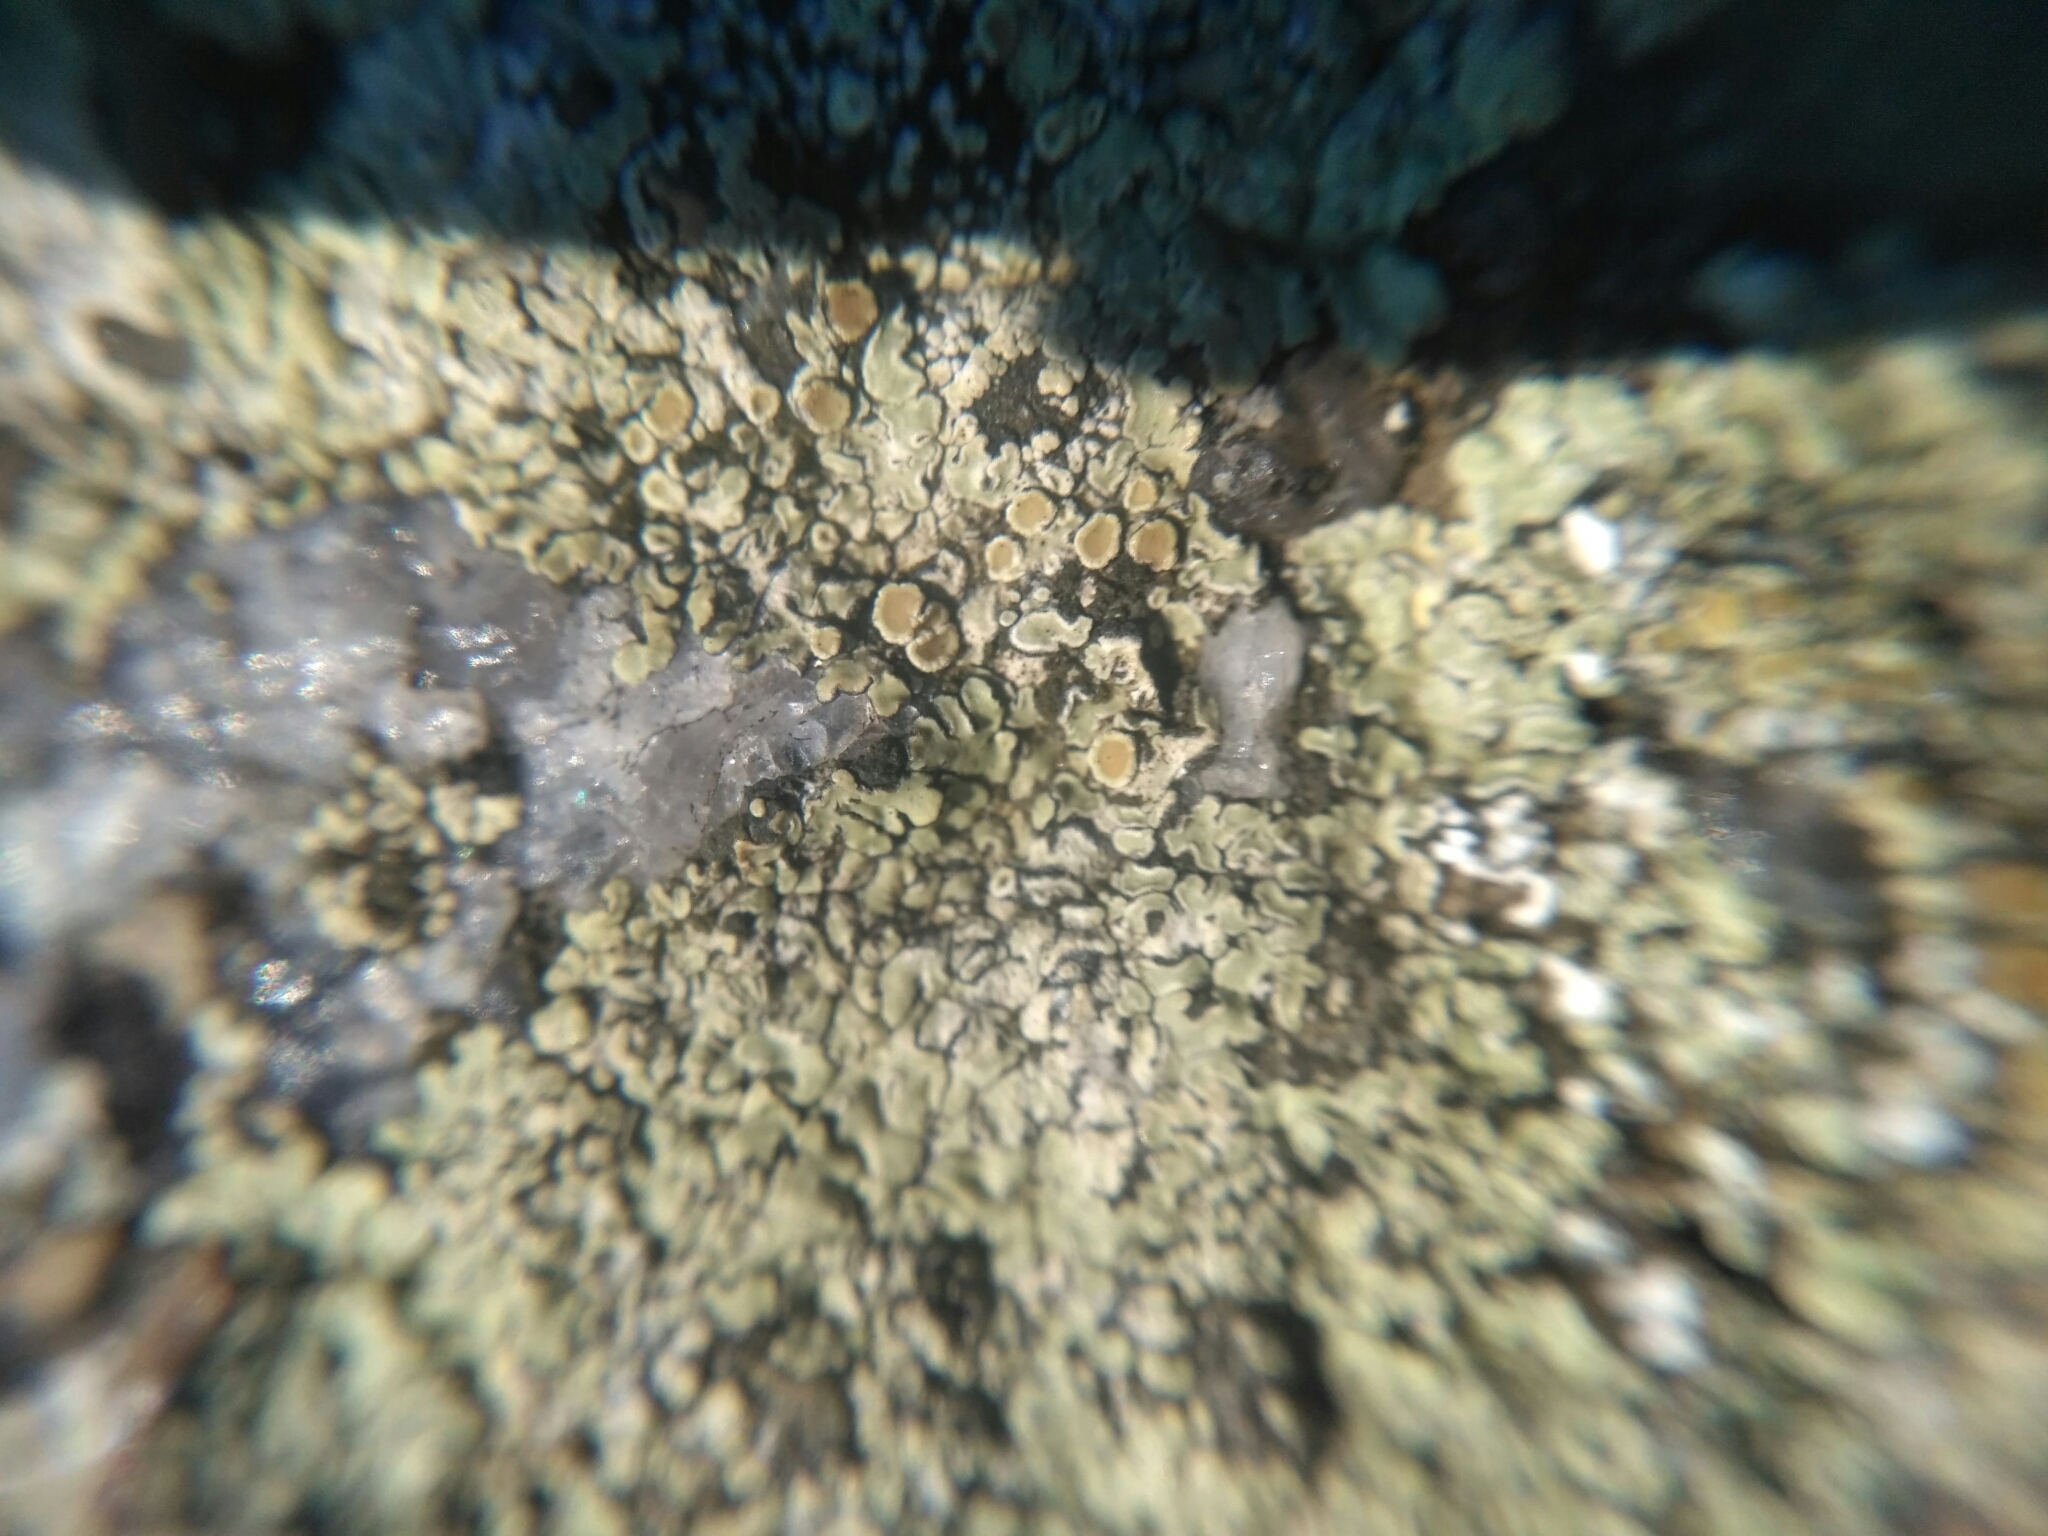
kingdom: Fungi
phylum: Ascomycota
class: Lecanoromycetes
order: Lecanorales
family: Lecanoraceae
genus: Protoparmeliopsis
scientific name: Protoparmeliopsis muralis
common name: Stonewall rim lichen
